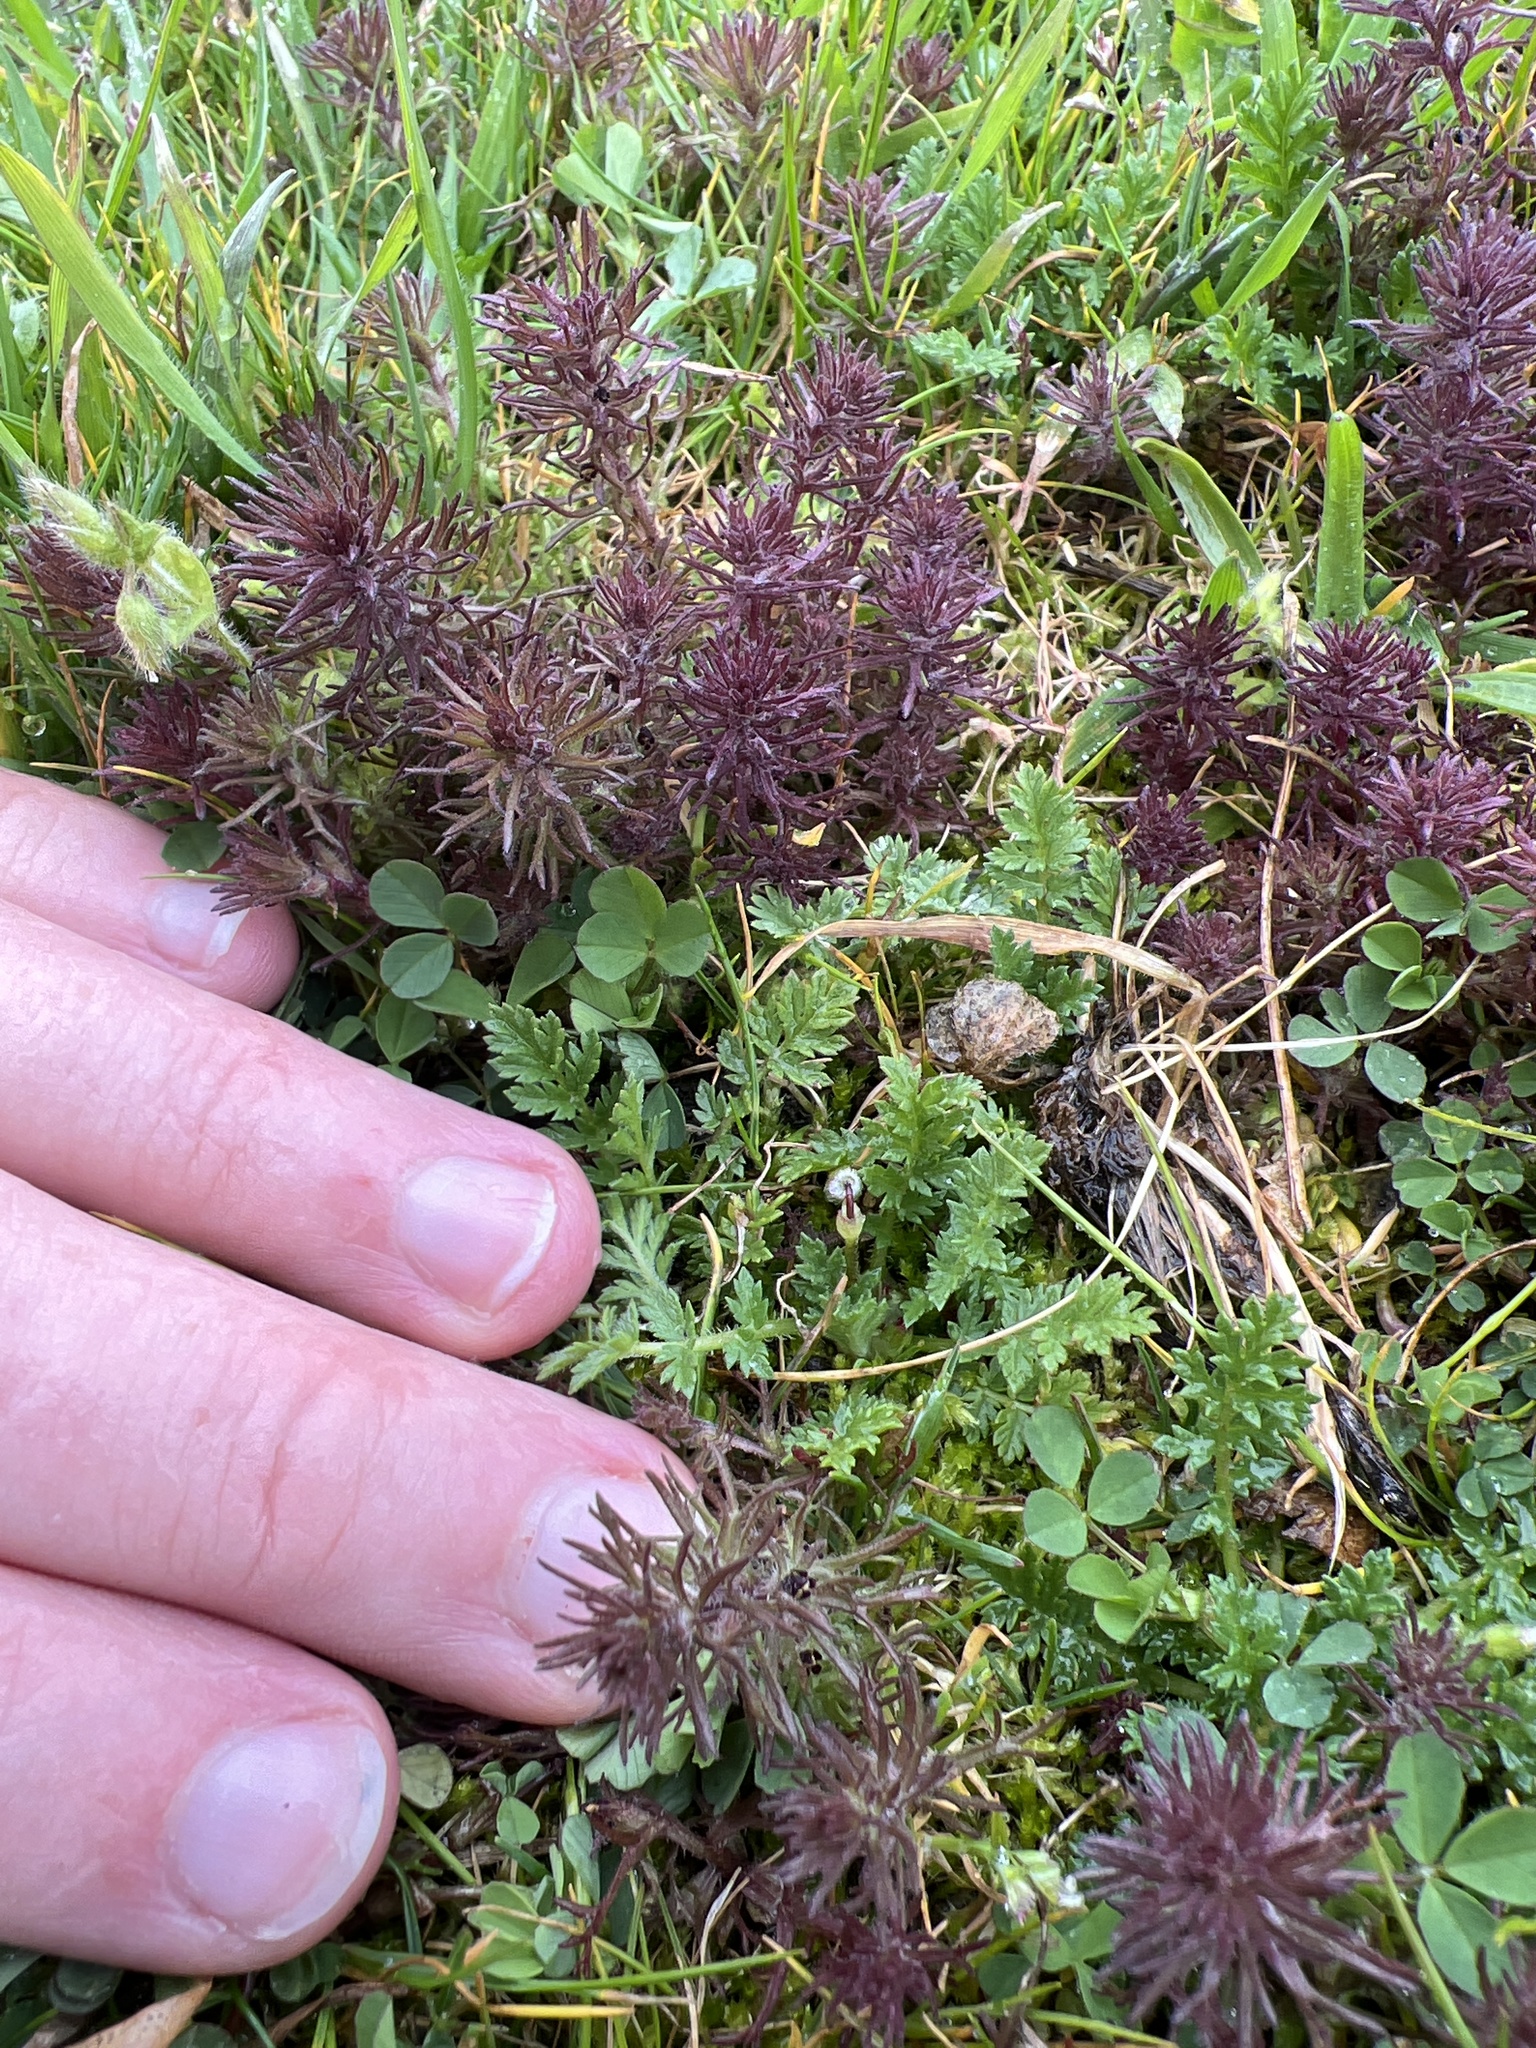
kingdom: Plantae
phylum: Tracheophyta
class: Magnoliopsida
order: Lamiales
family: Orobanchaceae
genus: Triphysaria
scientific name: Triphysaria pusilla
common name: Dwarf false owl-clover
